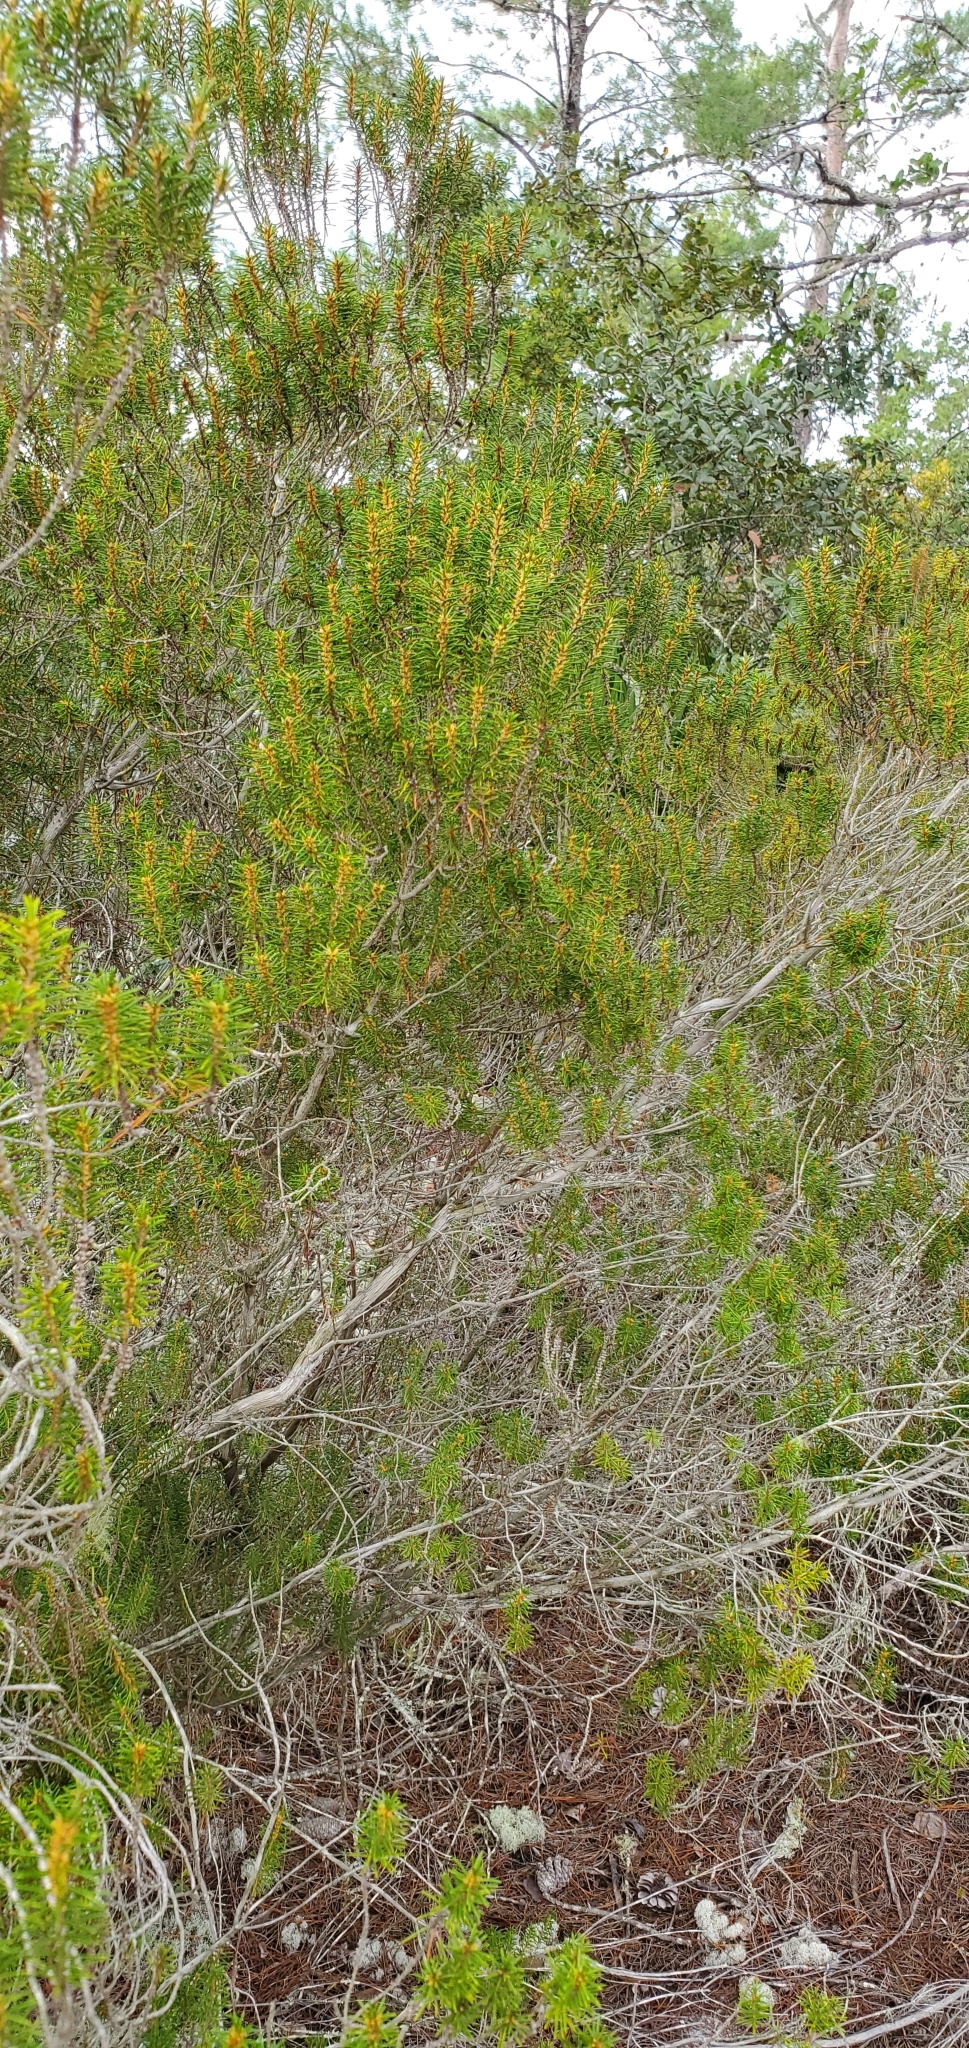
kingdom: Plantae
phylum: Tracheophyta
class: Magnoliopsida
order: Ericales
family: Ericaceae
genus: Ceratiola
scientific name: Ceratiola ericoides
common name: Sandhill-rosemary
